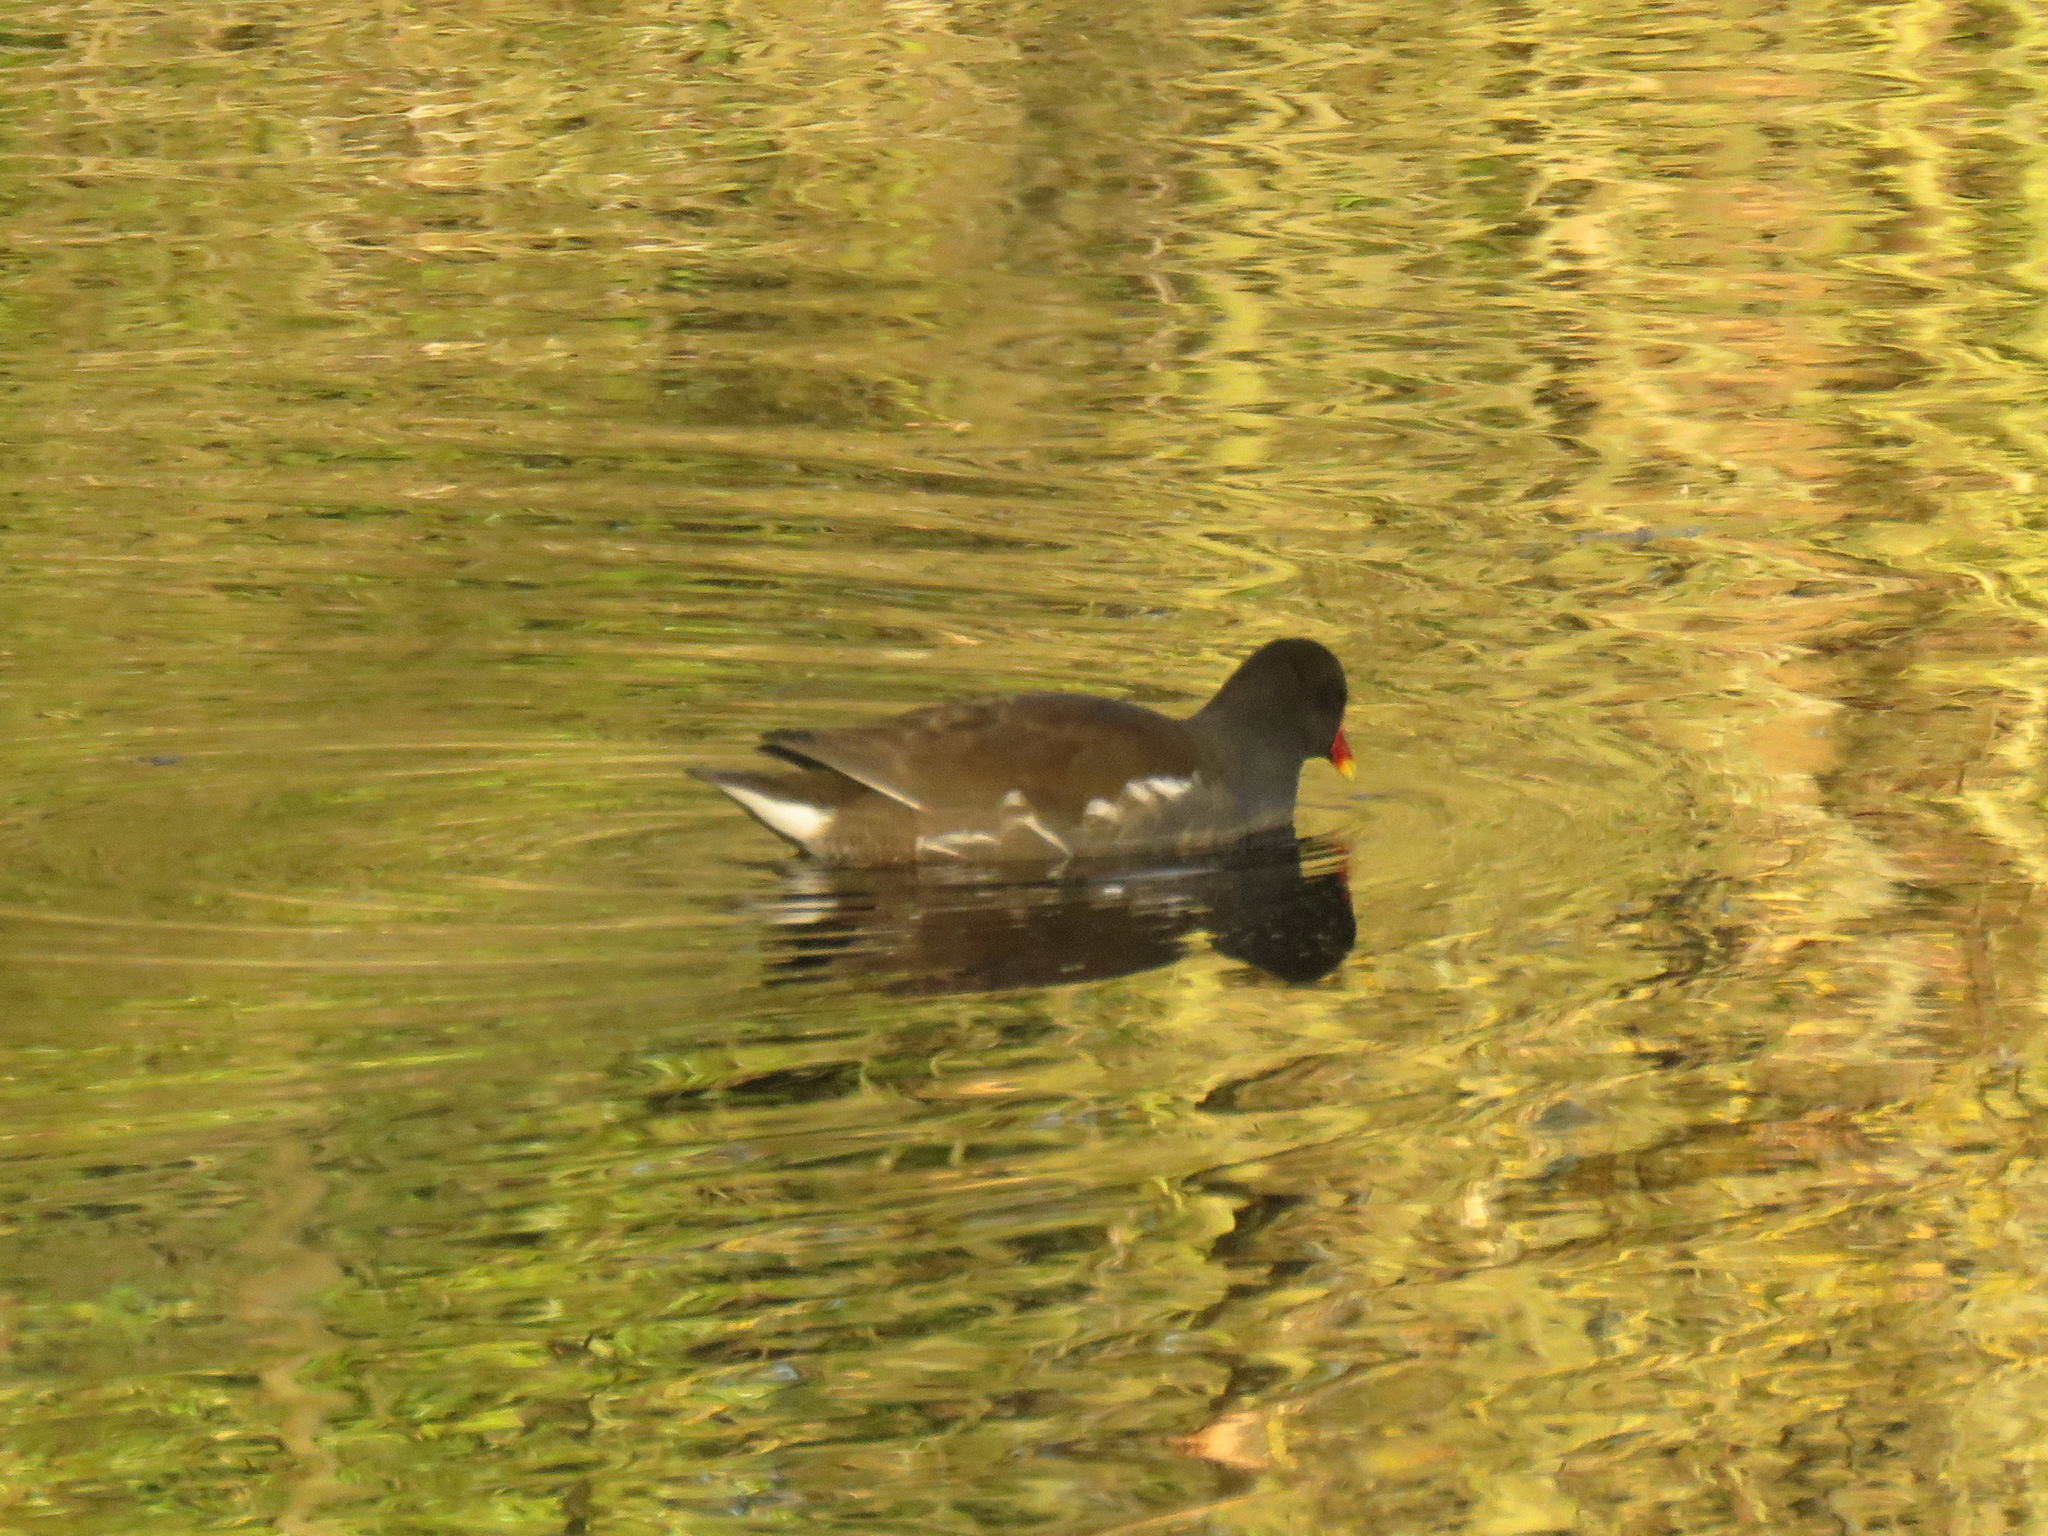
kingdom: Animalia
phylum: Chordata
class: Aves
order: Gruiformes
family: Rallidae
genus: Gallinula
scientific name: Gallinula chloropus
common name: Common moorhen
